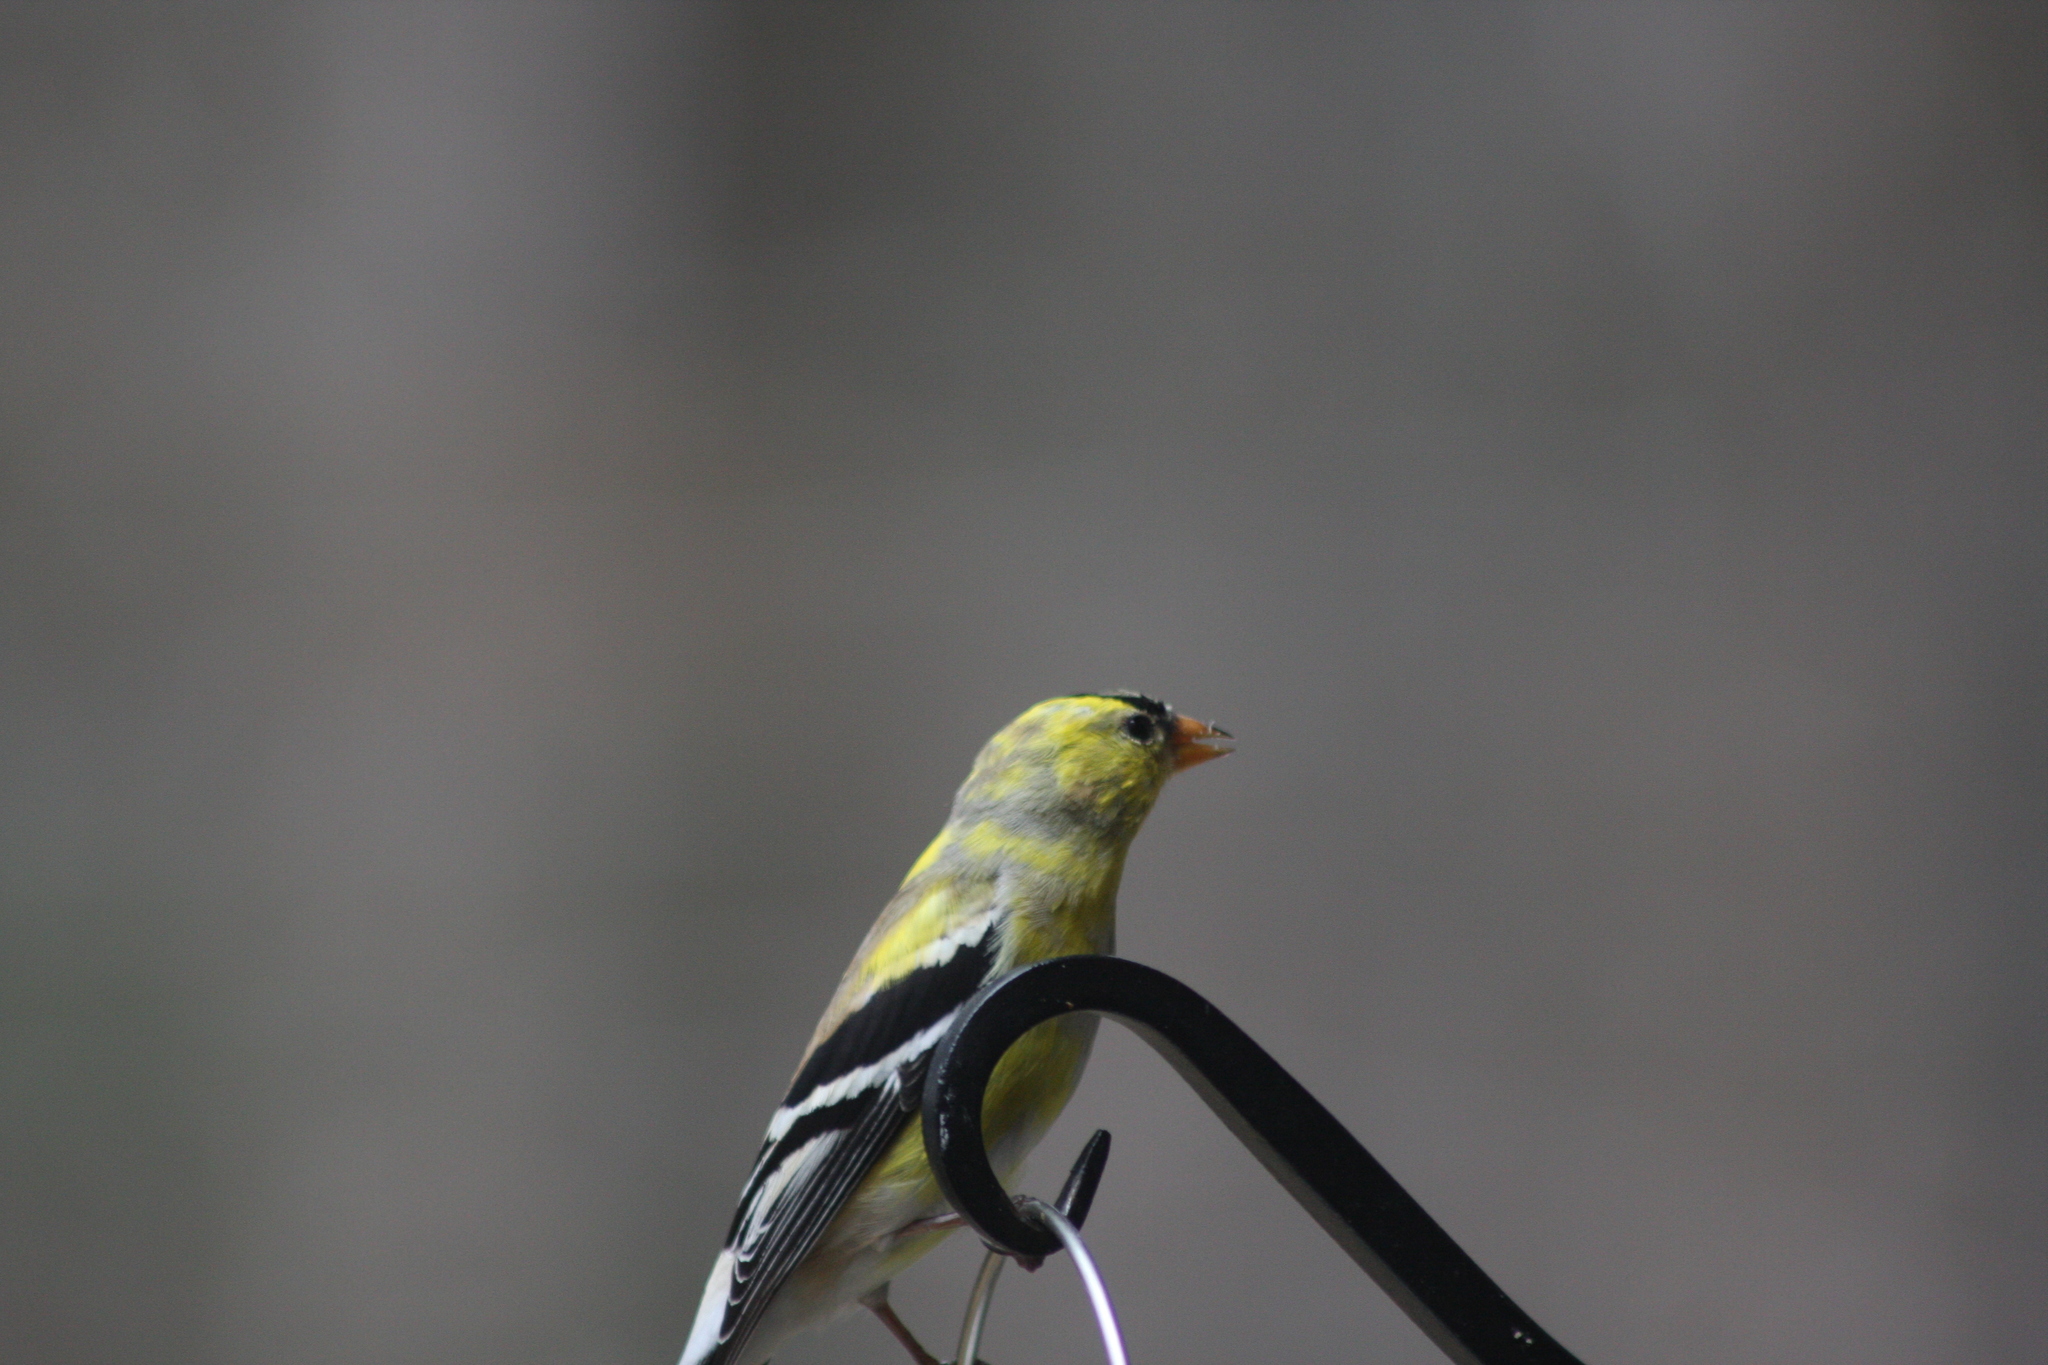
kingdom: Animalia
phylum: Chordata
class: Aves
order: Passeriformes
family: Fringillidae
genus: Spinus
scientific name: Spinus tristis
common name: American goldfinch
